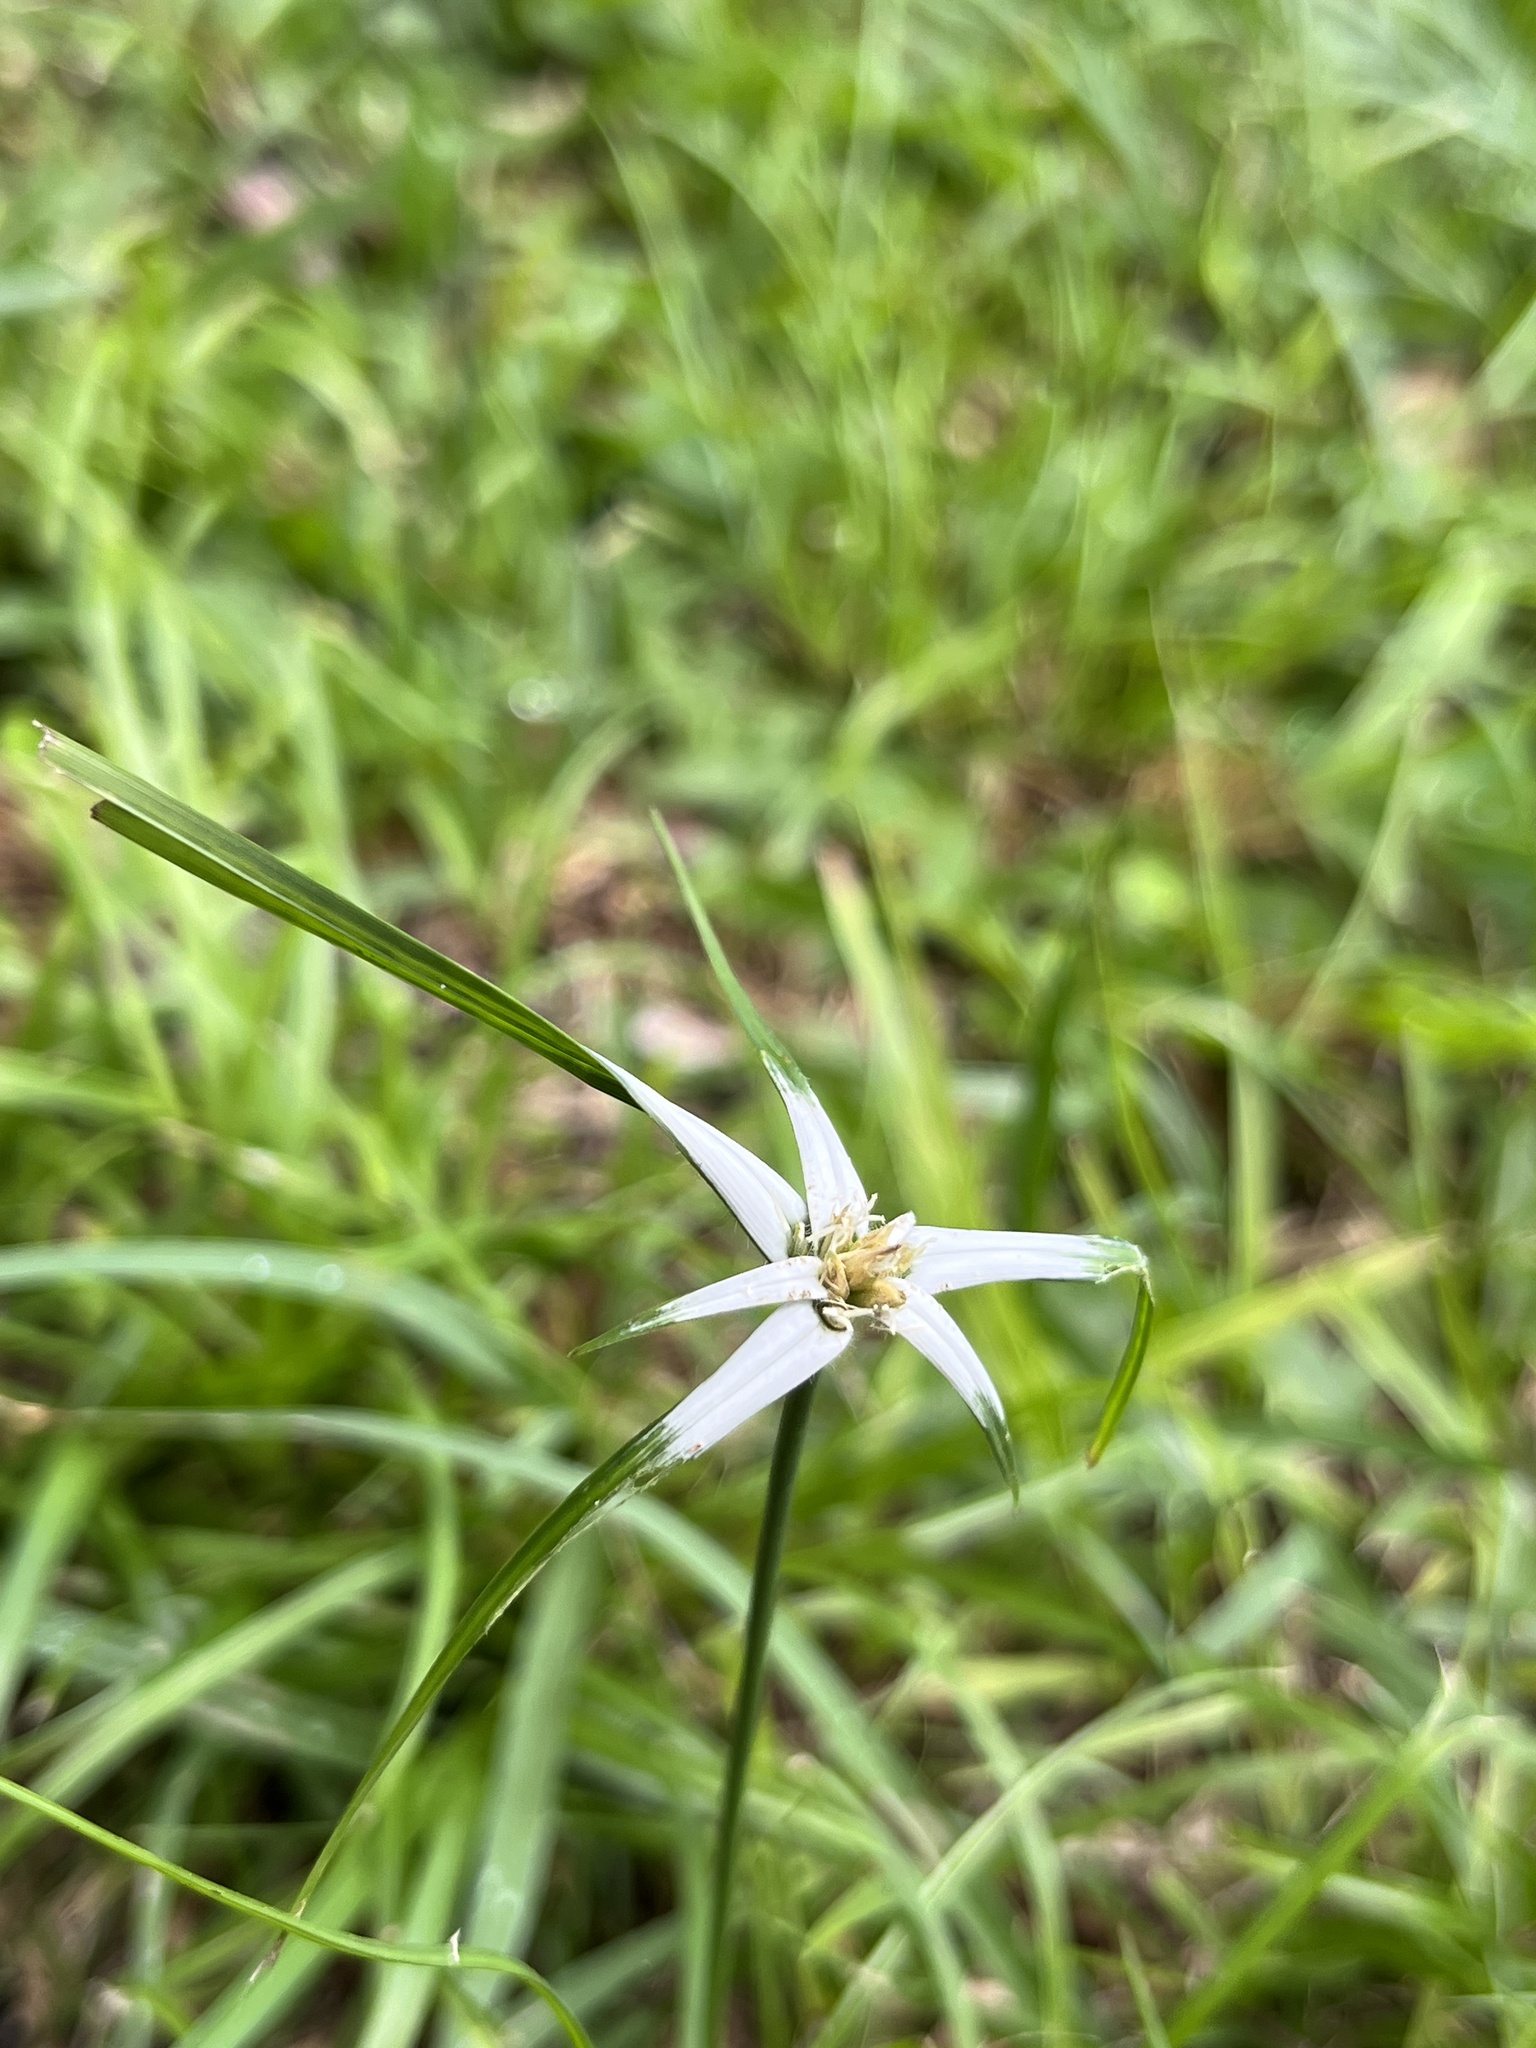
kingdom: Plantae
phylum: Tracheophyta
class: Liliopsida
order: Poales
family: Cyperaceae
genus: Rhynchospora
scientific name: Rhynchospora pura
